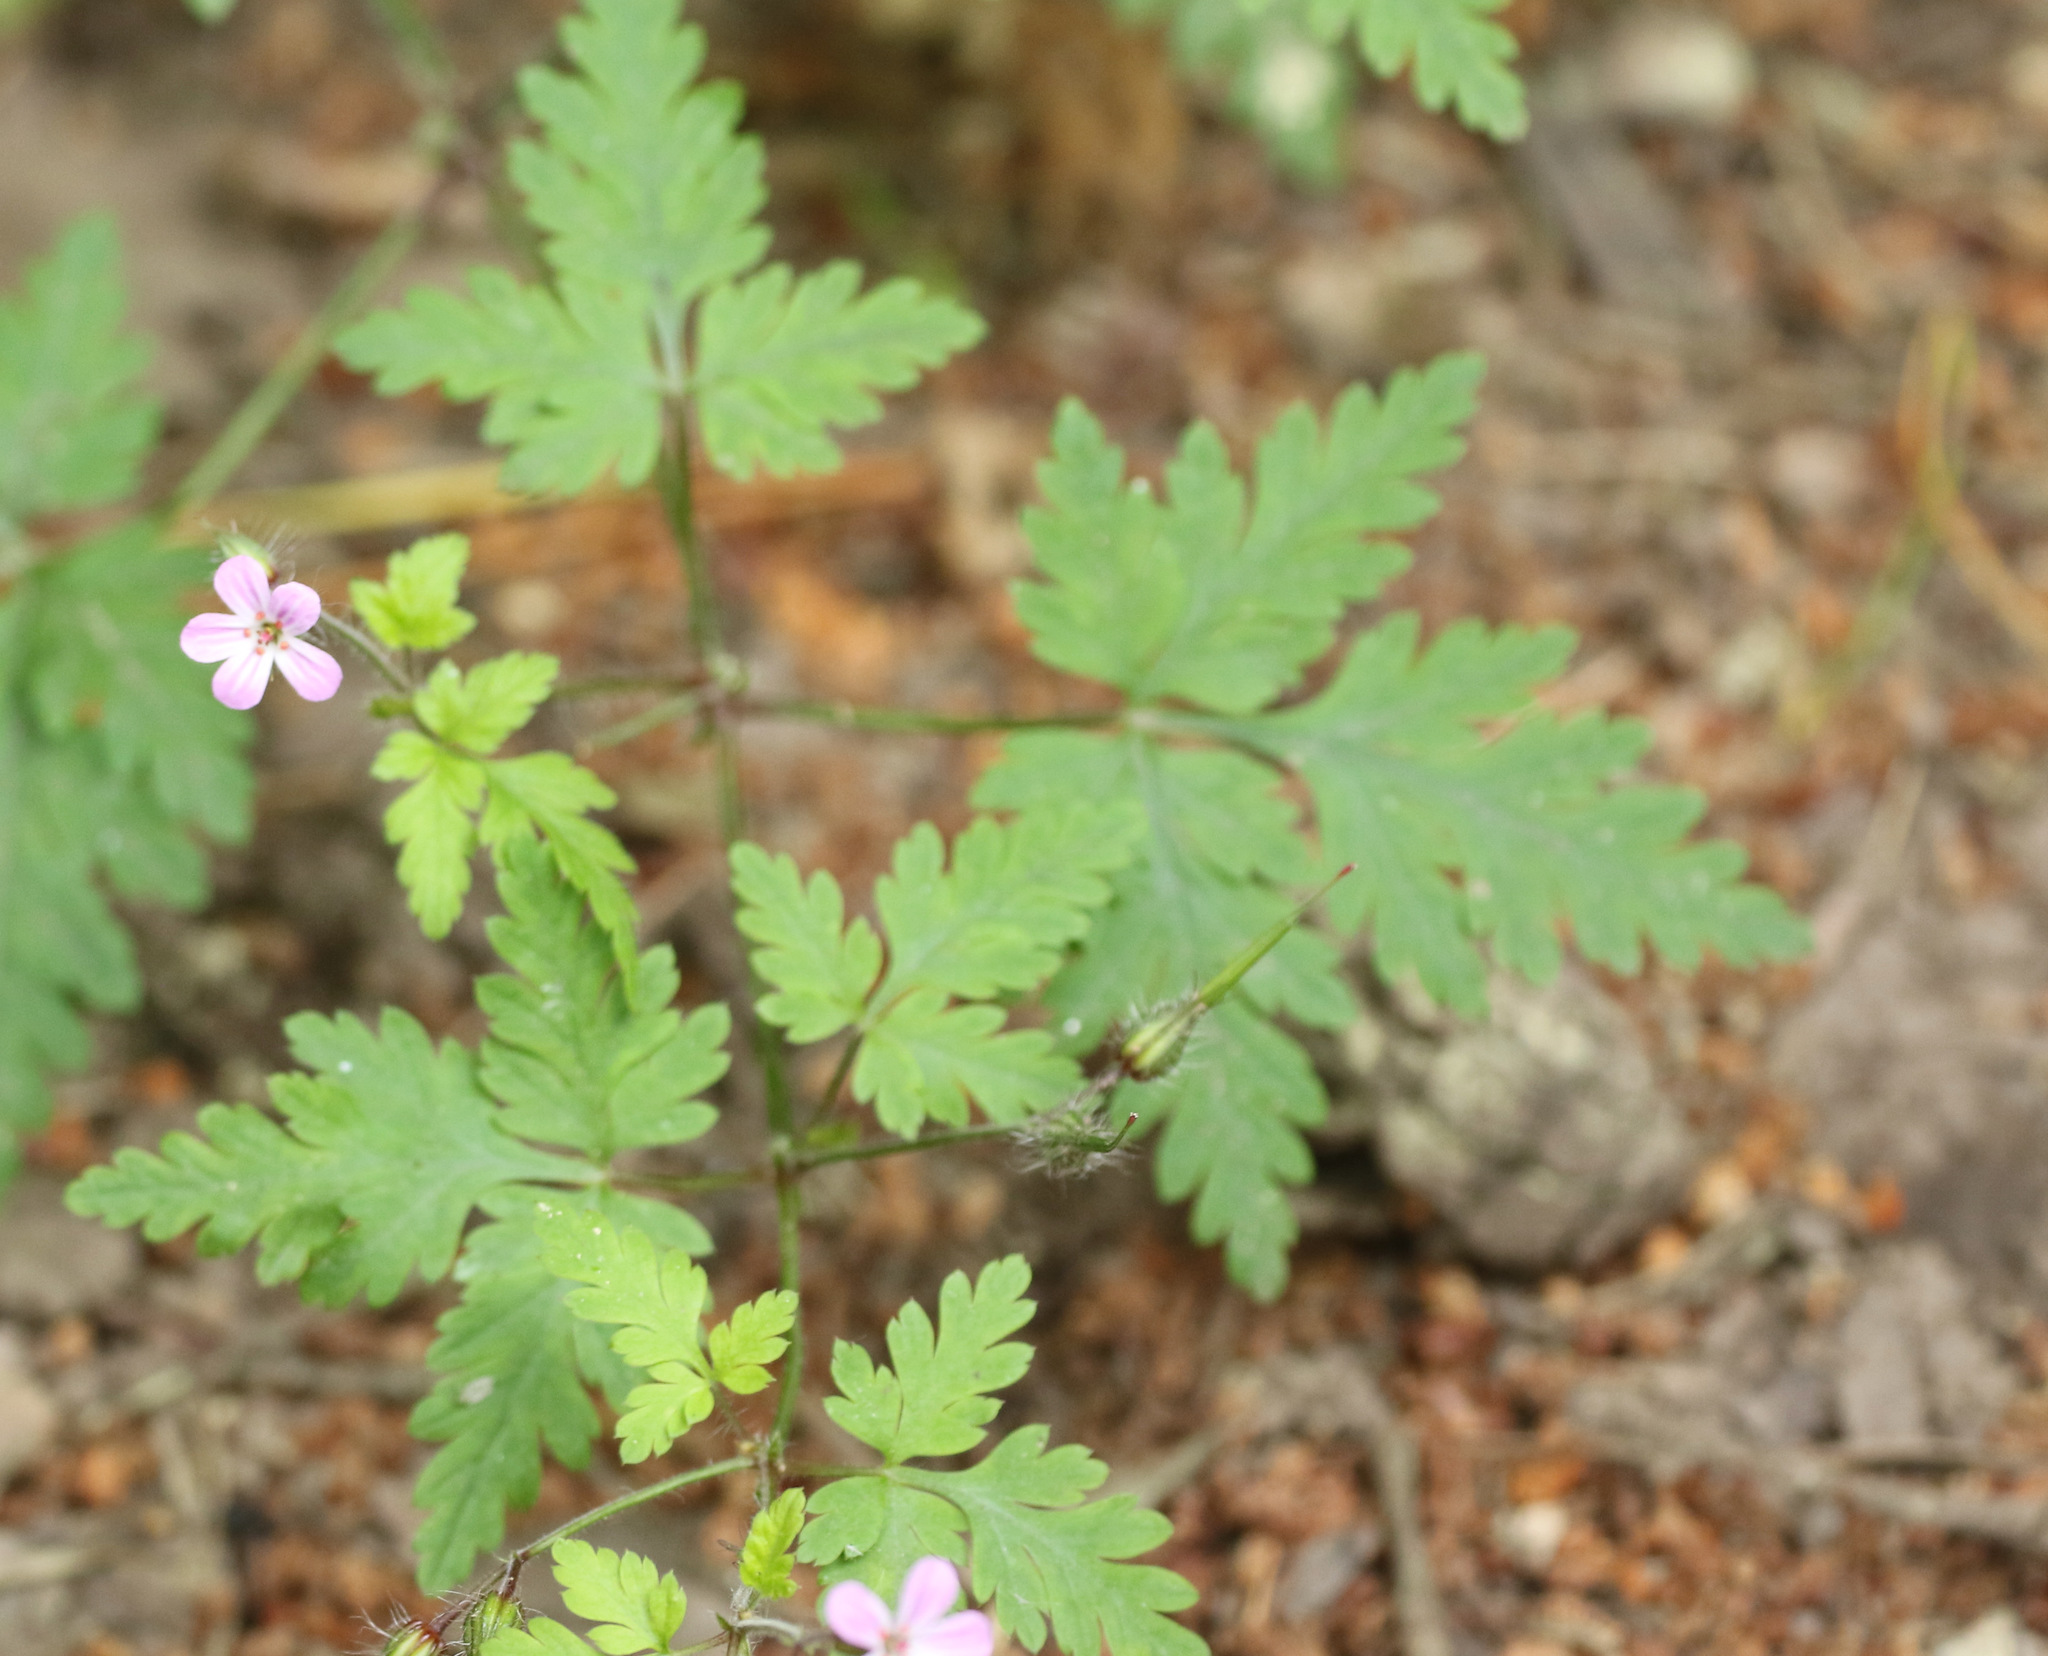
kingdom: Plantae
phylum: Tracheophyta
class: Magnoliopsida
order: Geraniales
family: Geraniaceae
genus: Geranium
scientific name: Geranium robertianum
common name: Herb-robert
